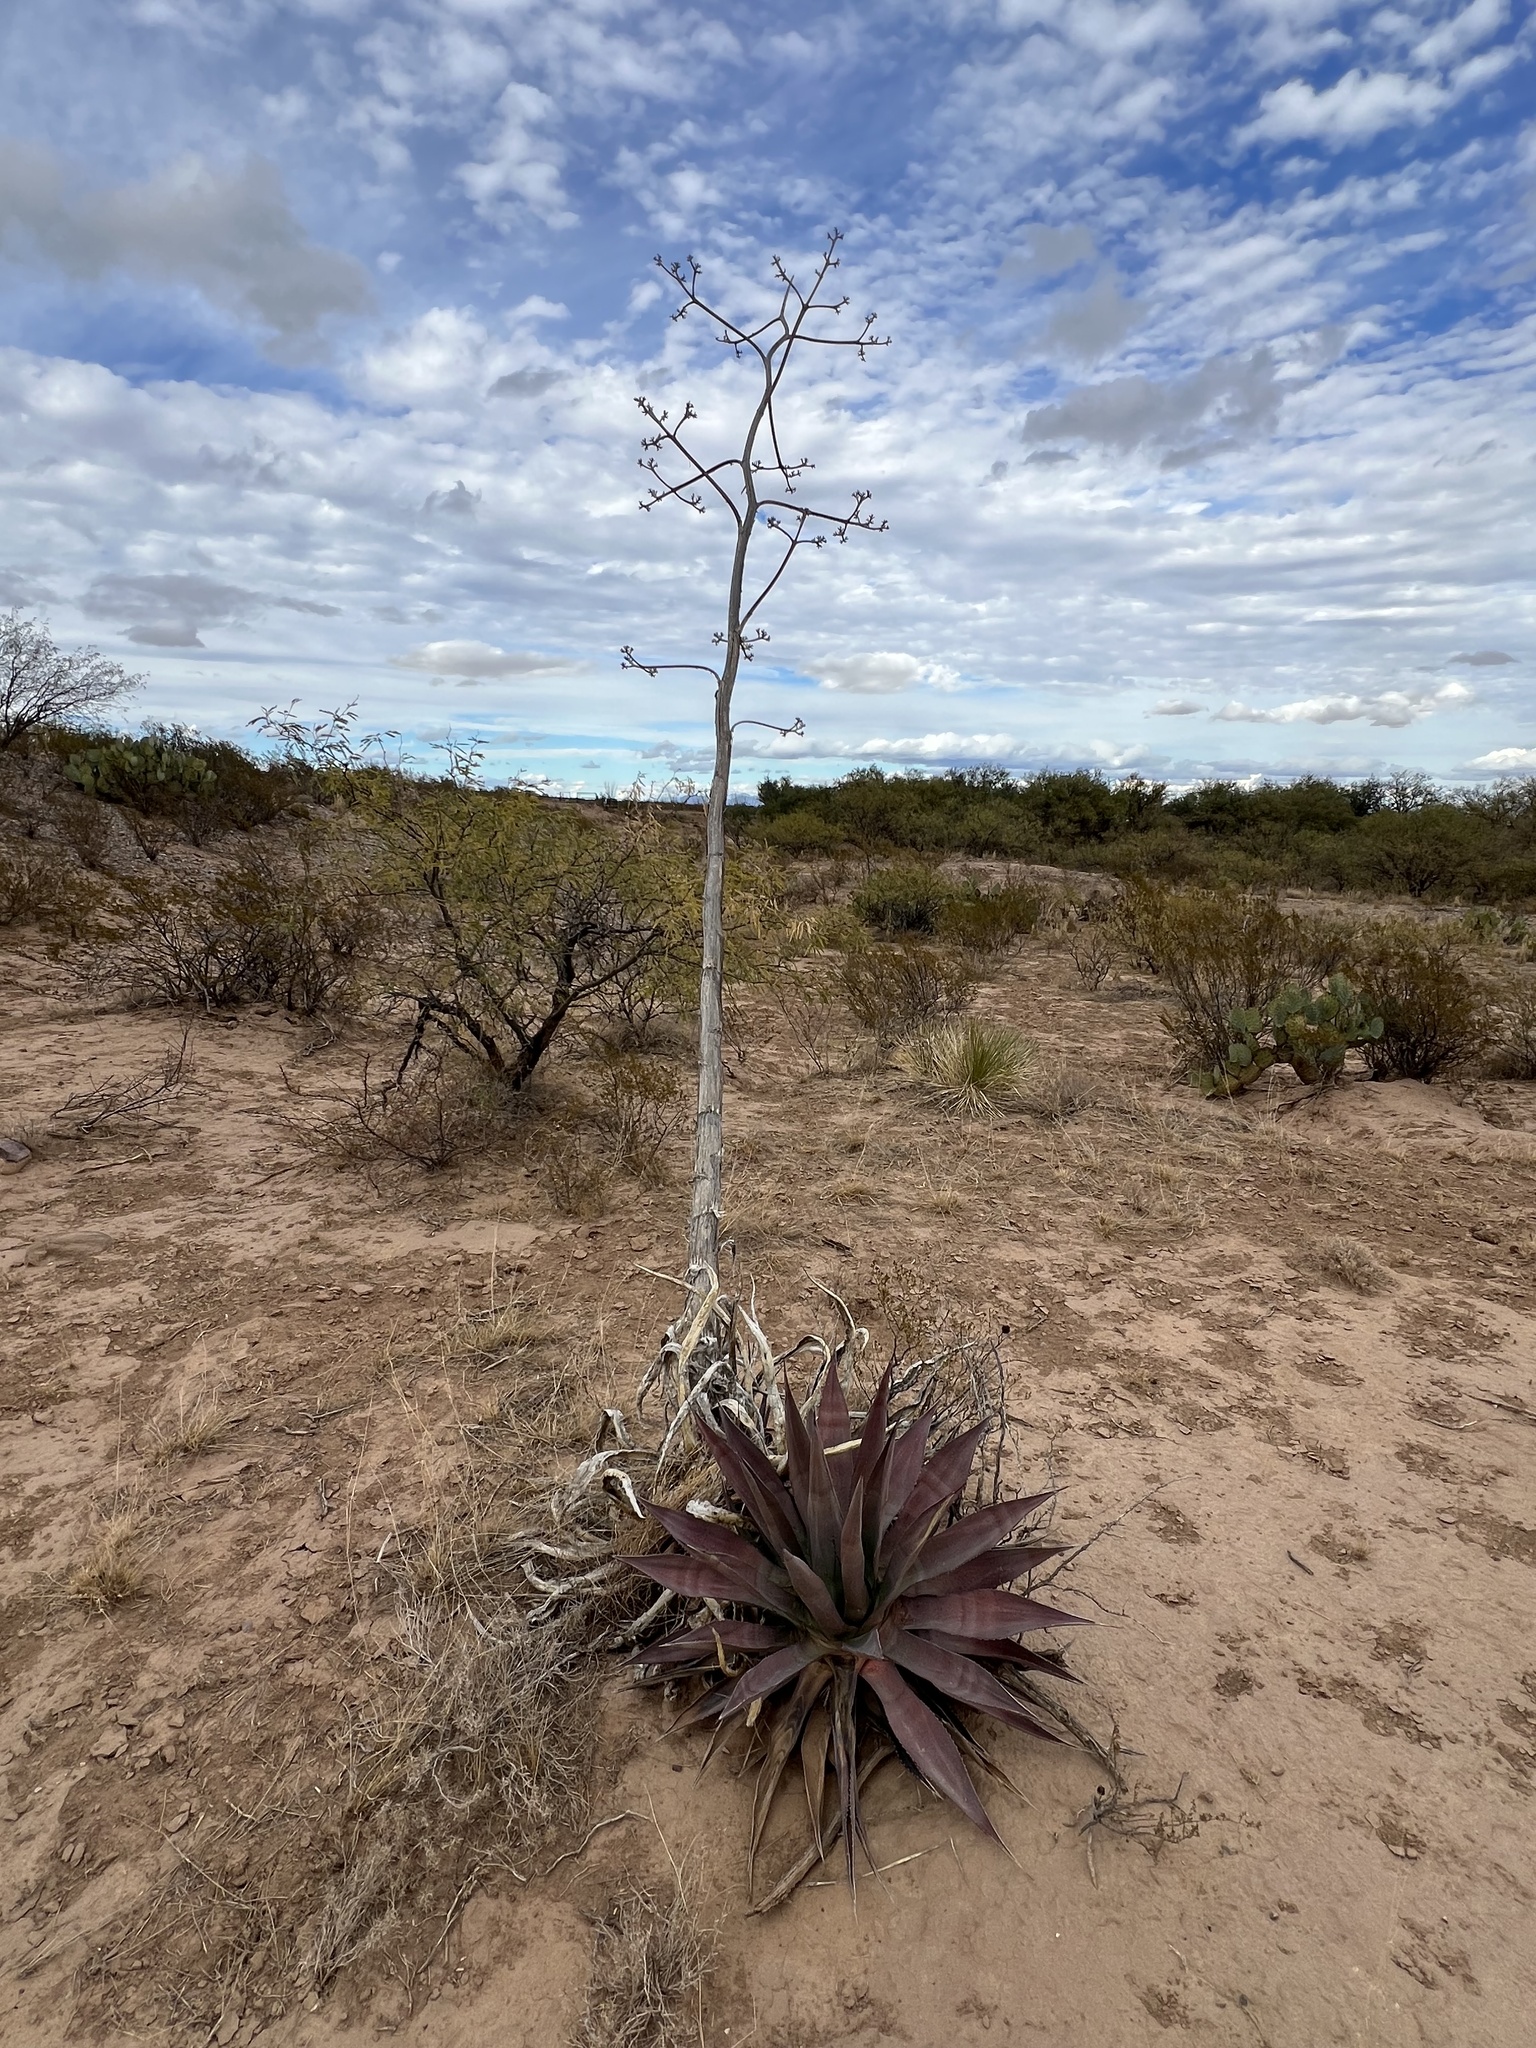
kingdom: Plantae
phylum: Tracheophyta
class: Liliopsida
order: Asparagales
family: Asparagaceae
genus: Agave
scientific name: Agave palmeri
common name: Palmer agave
